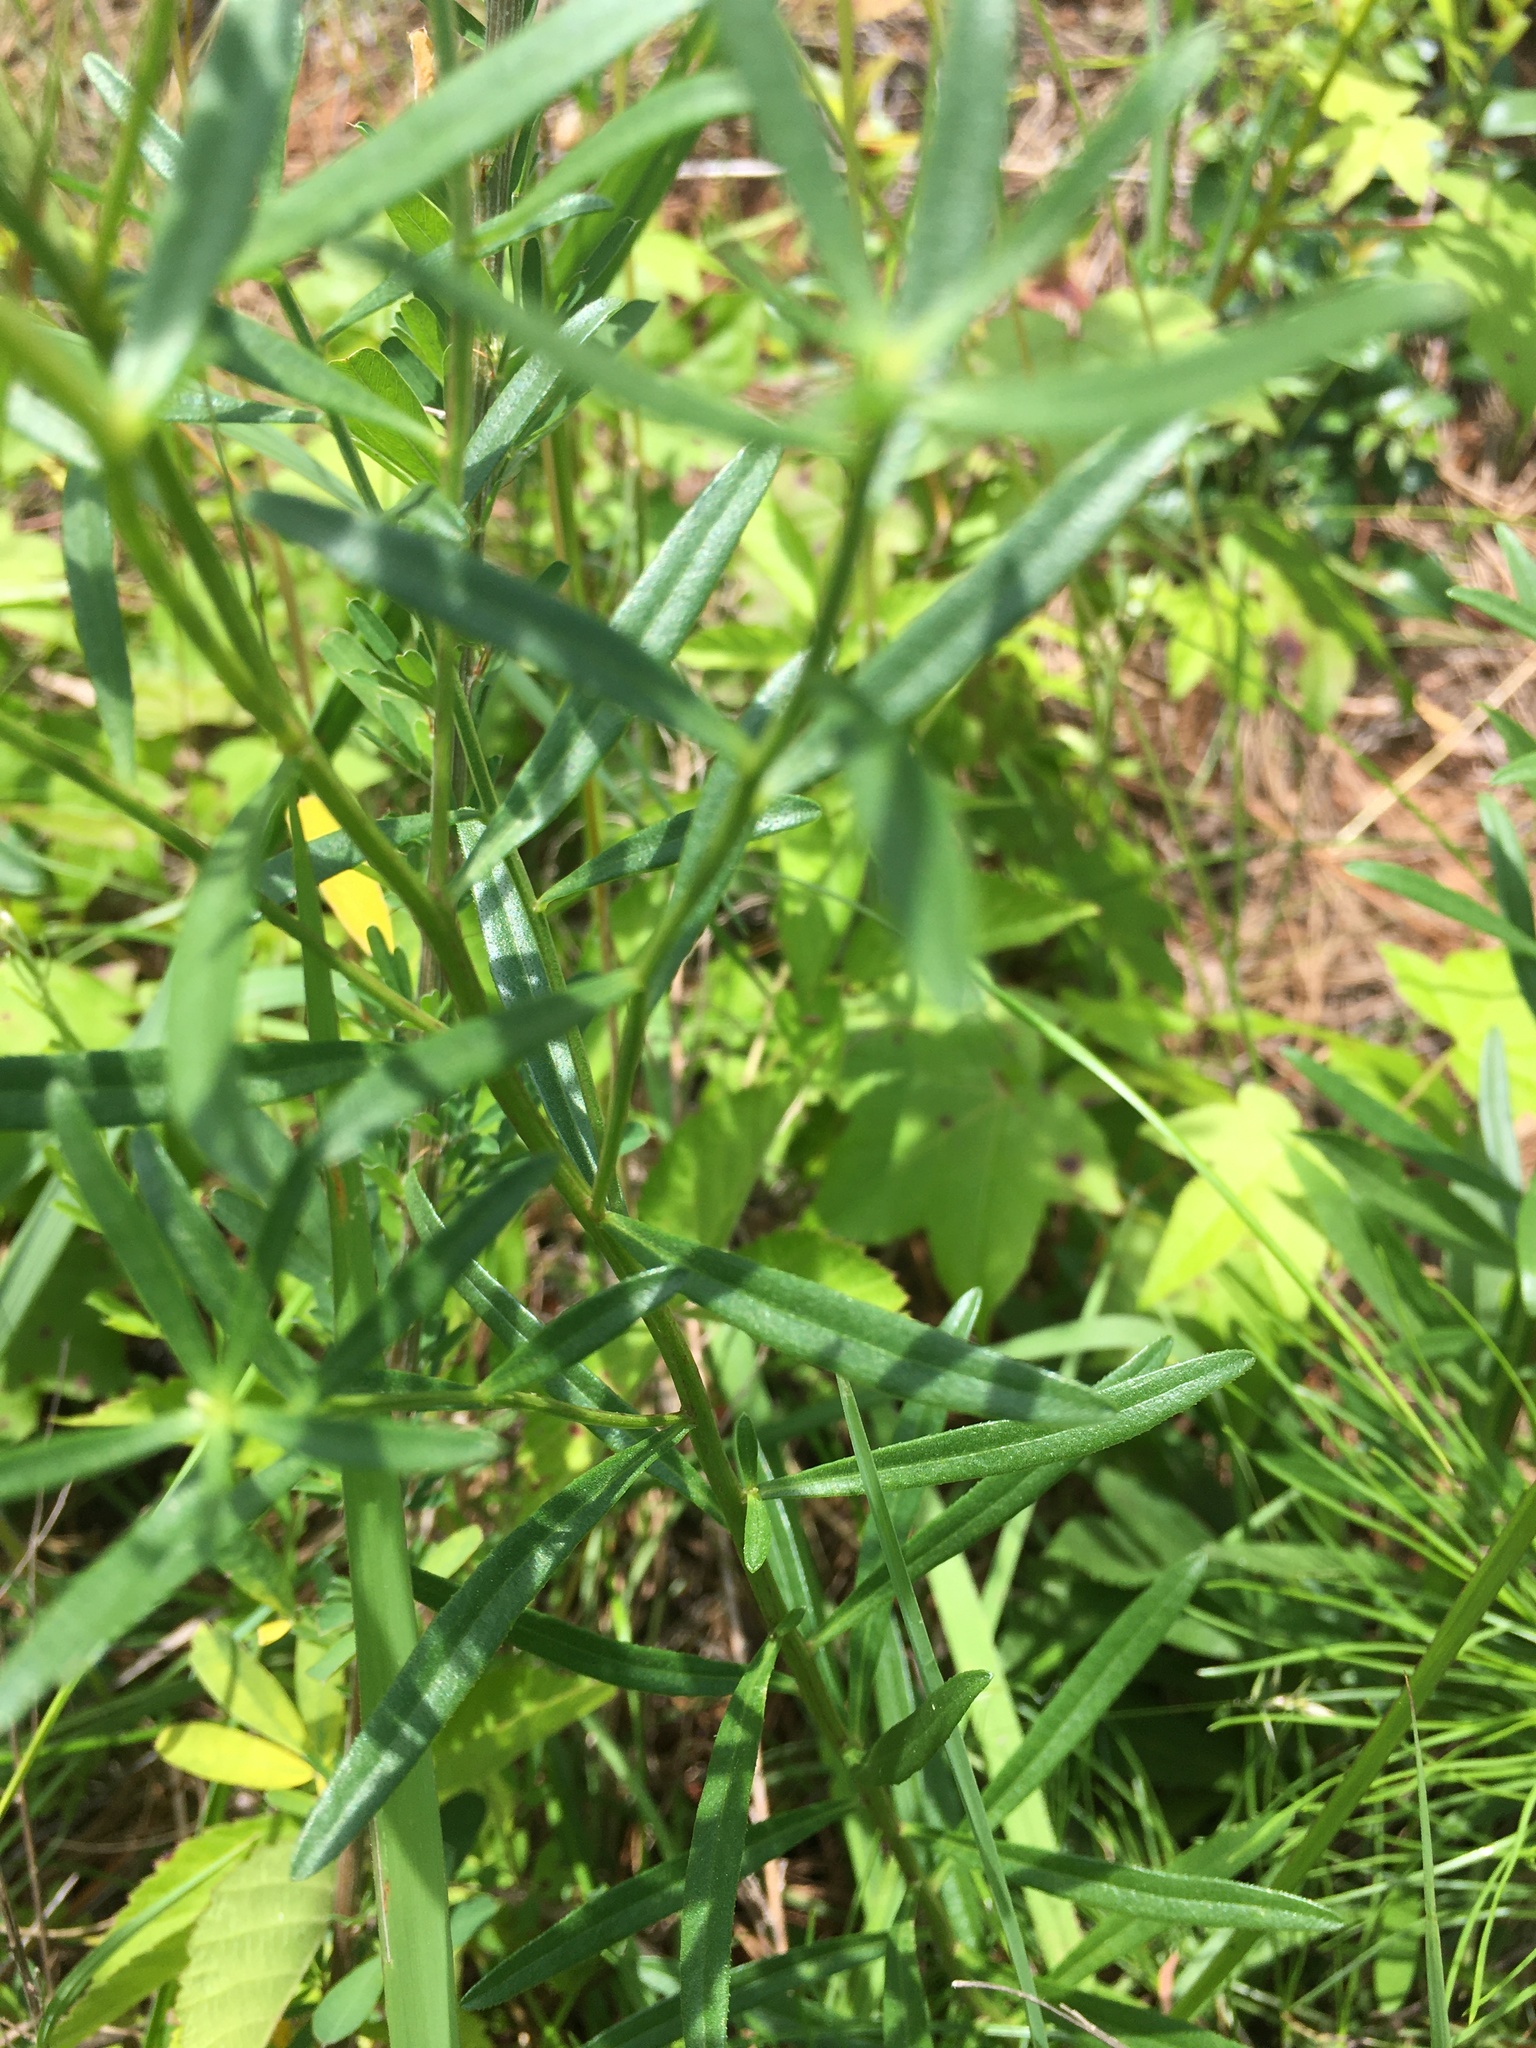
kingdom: Plantae
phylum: Tracheophyta
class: Magnoliopsida
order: Asterales
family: Asteraceae
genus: Sericocarpus
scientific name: Sericocarpus linifolius
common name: Narrow-leaf aster
